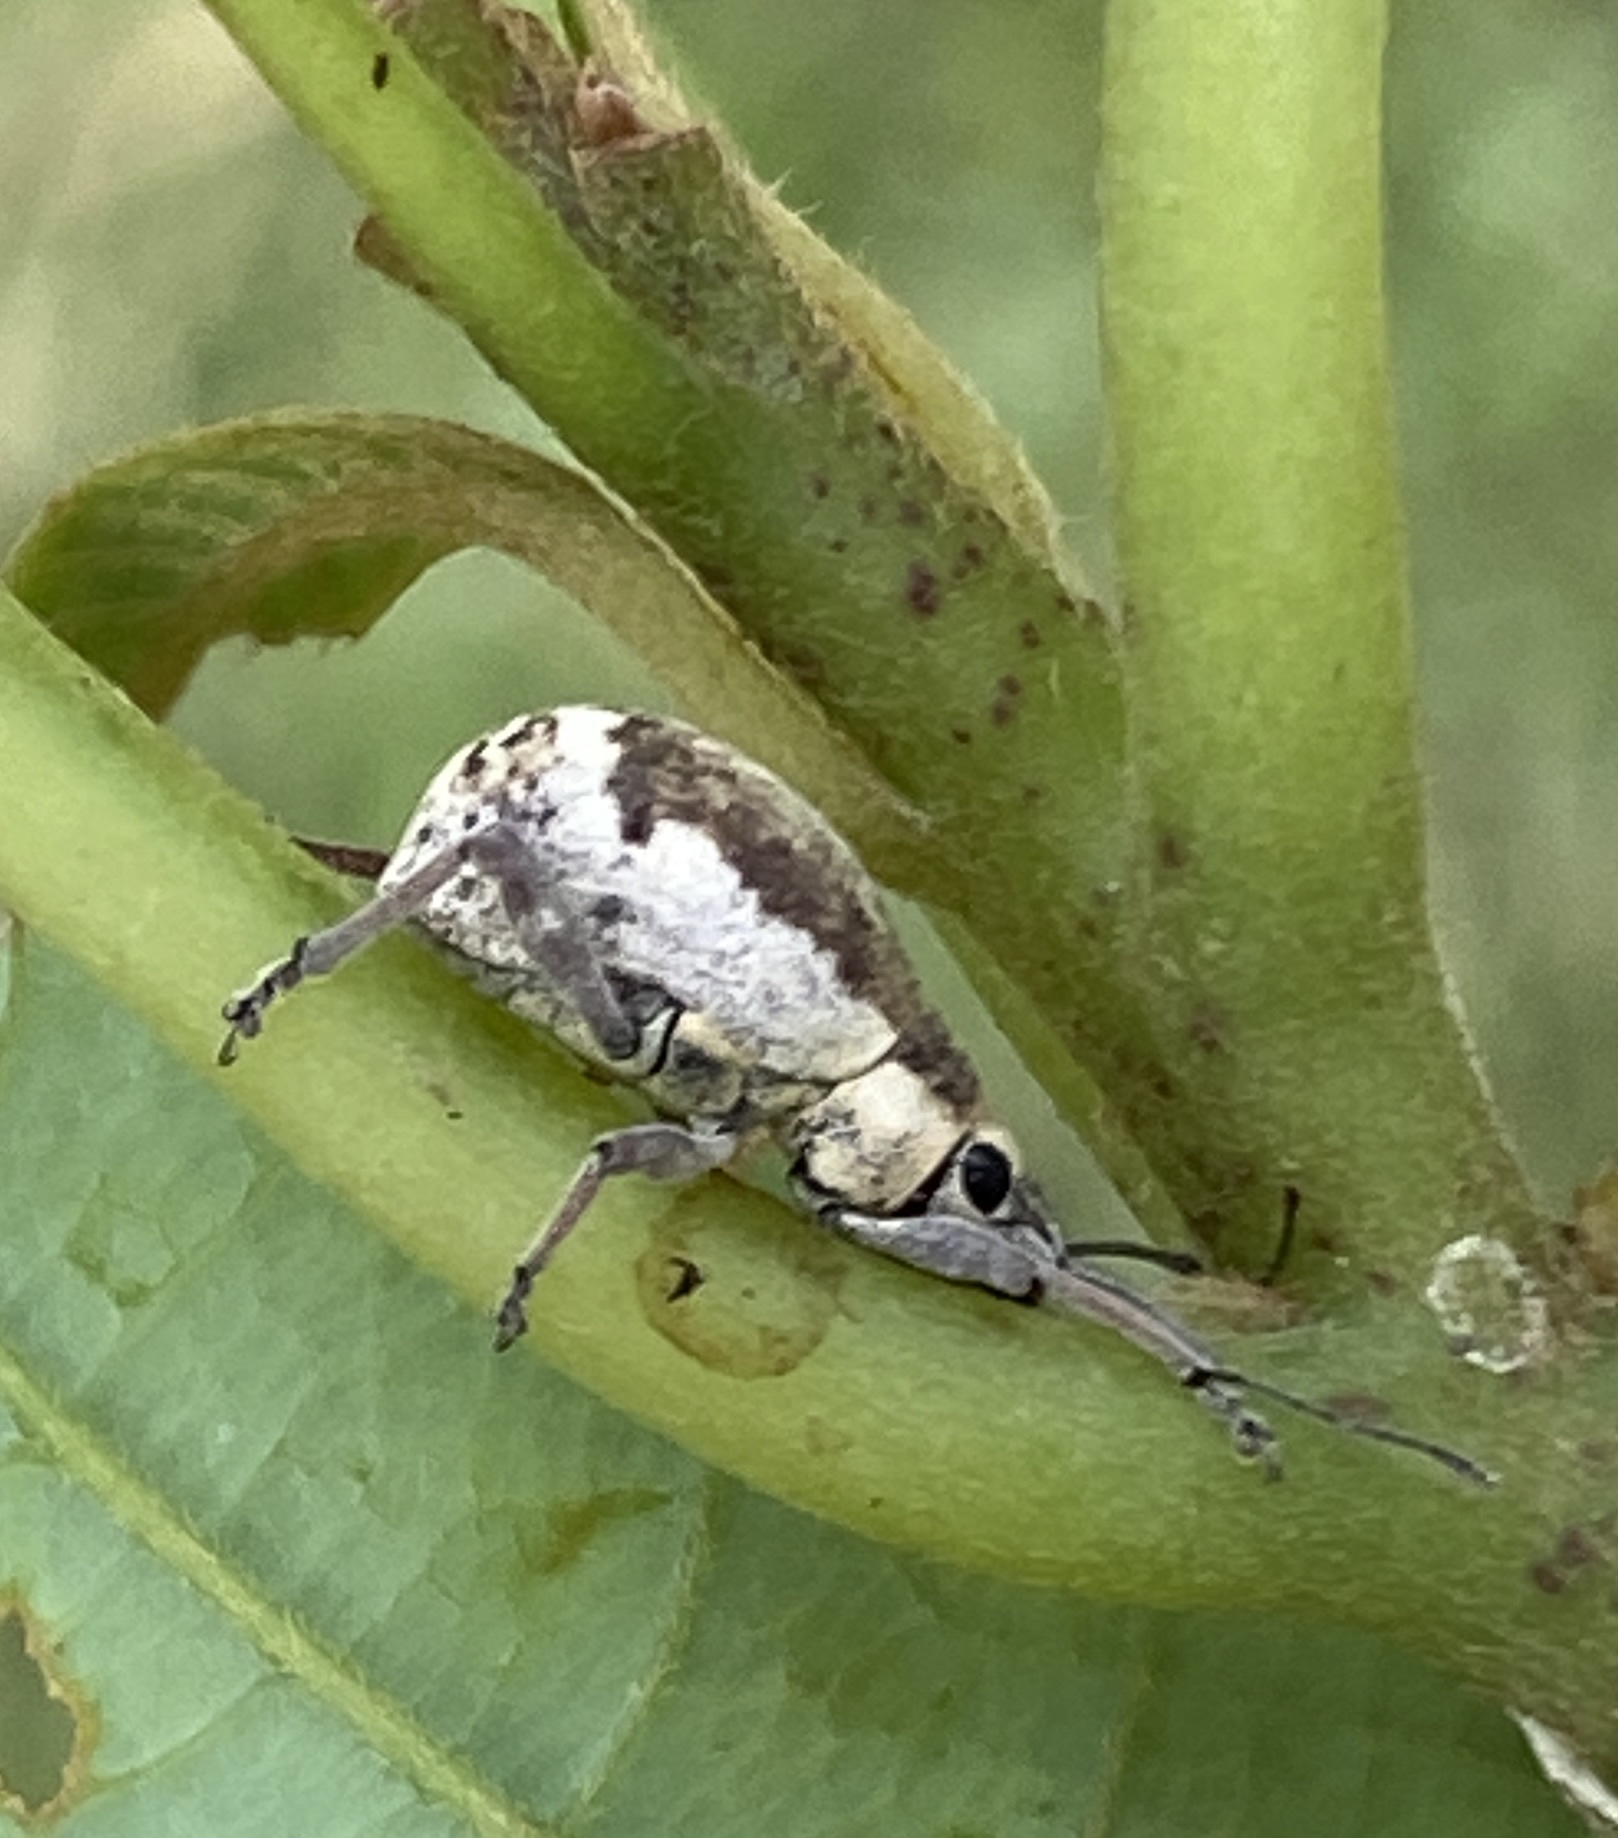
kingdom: Animalia
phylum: Arthropoda
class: Insecta
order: Coleoptera
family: Curculionidae
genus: Sciobius
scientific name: Sciobius pullus
